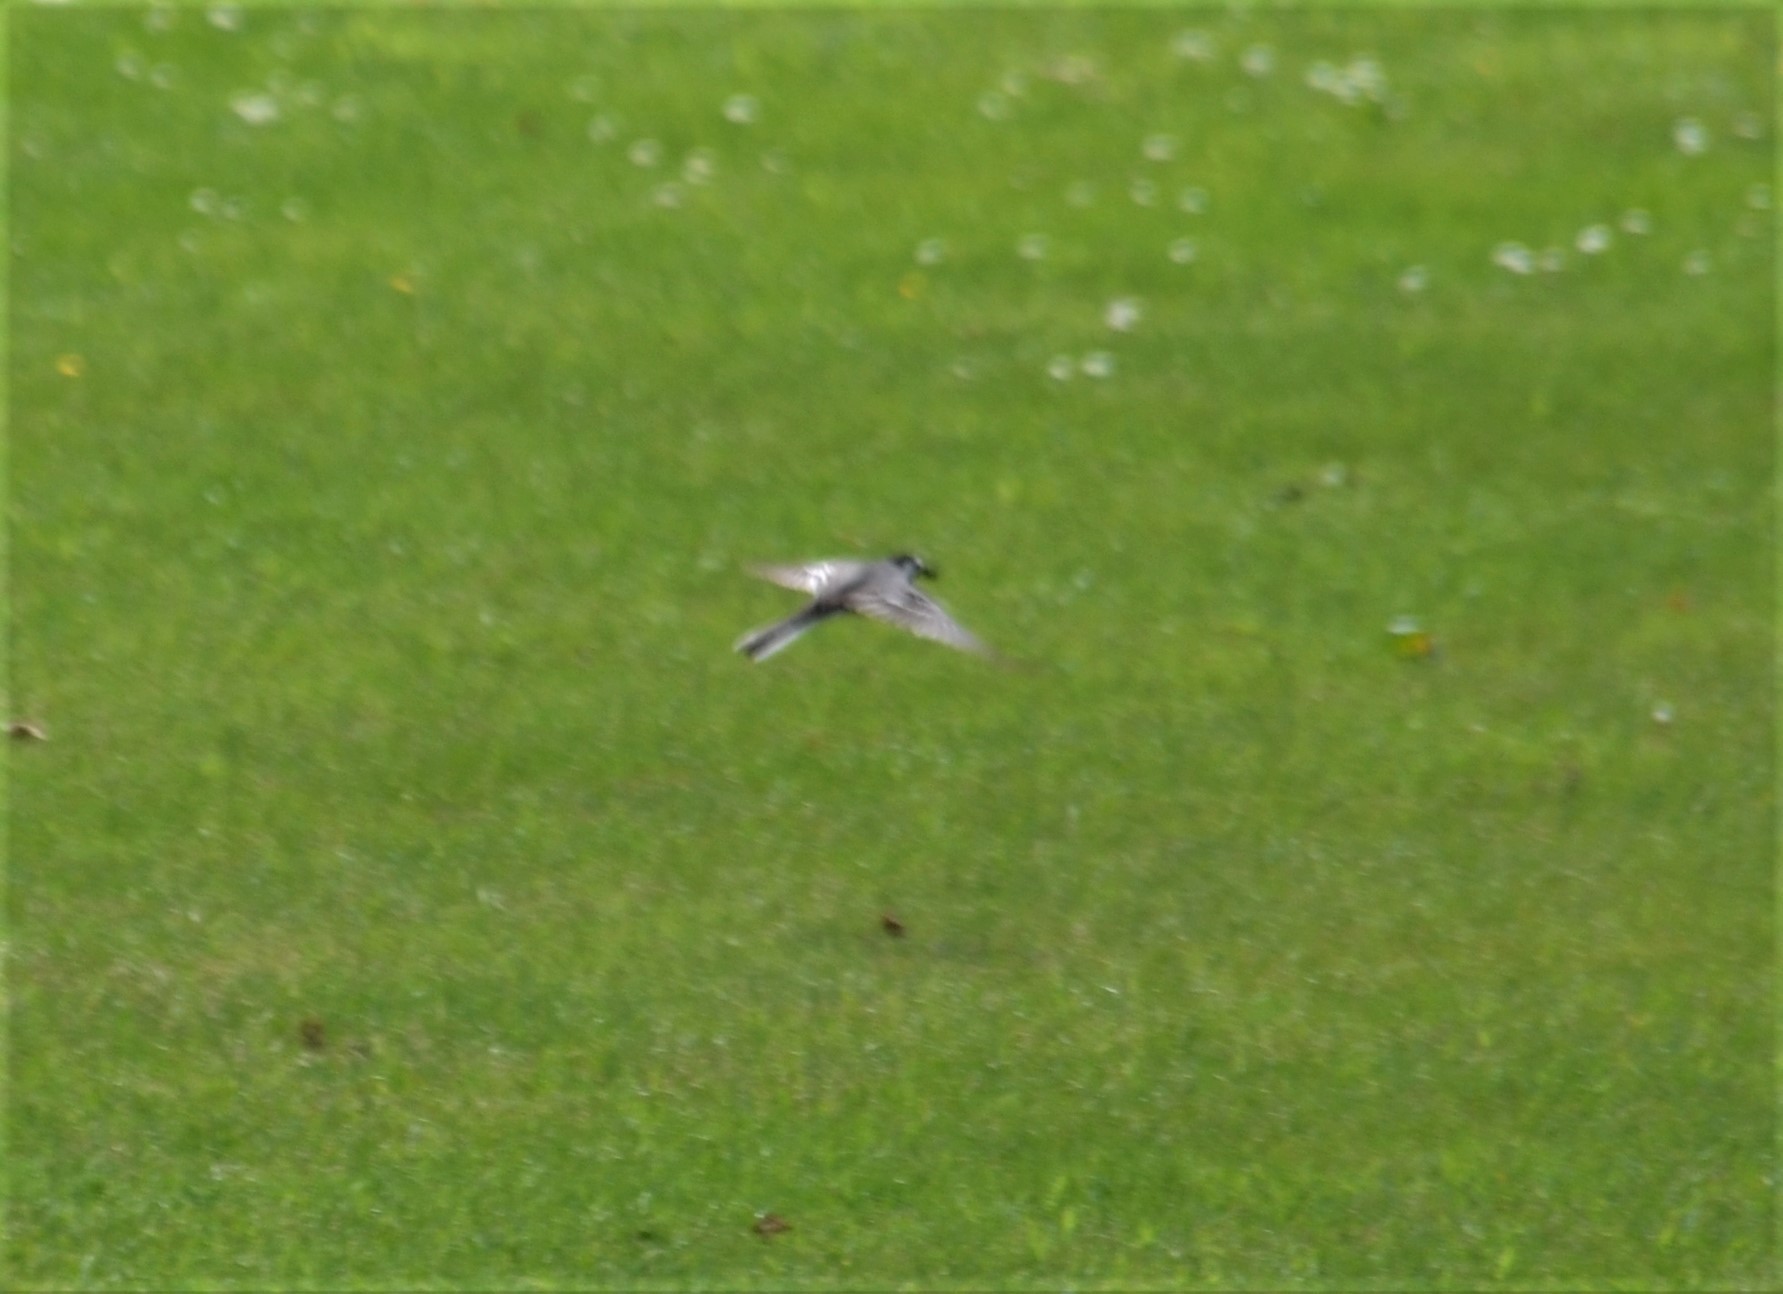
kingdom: Animalia
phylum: Chordata
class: Aves
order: Passeriformes
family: Motacillidae
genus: Motacilla
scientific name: Motacilla alba
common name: White wagtail
